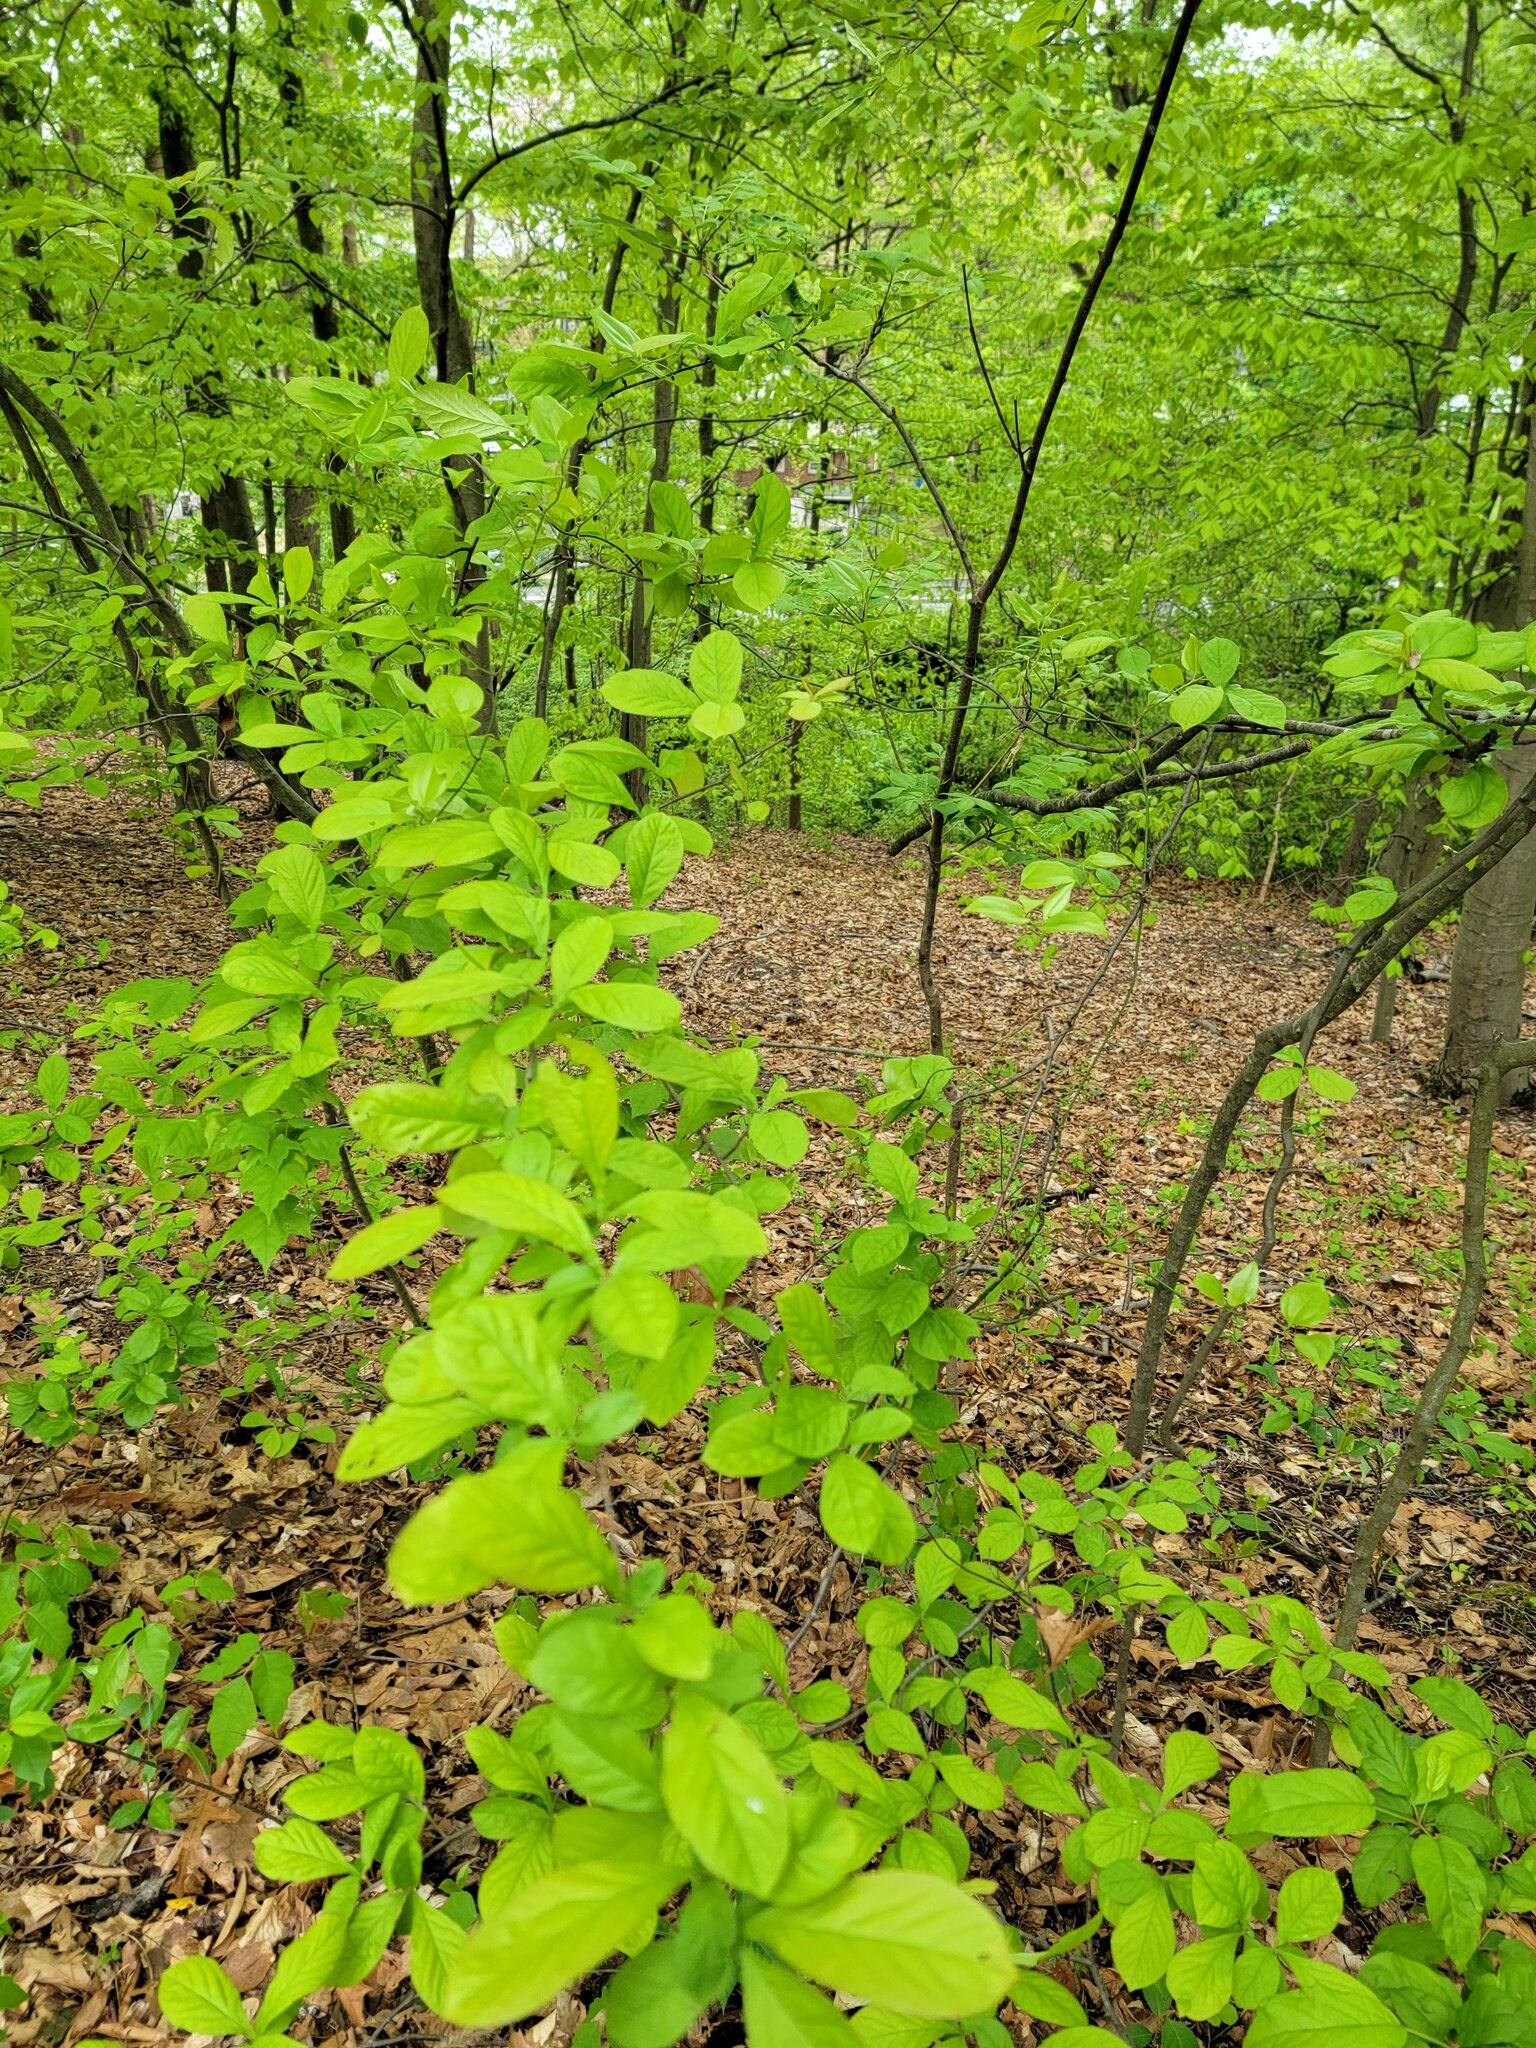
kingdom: Plantae
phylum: Tracheophyta
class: Magnoliopsida
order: Rosales
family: Rosaceae
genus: Pourthiaea
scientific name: Pourthiaea villosa
